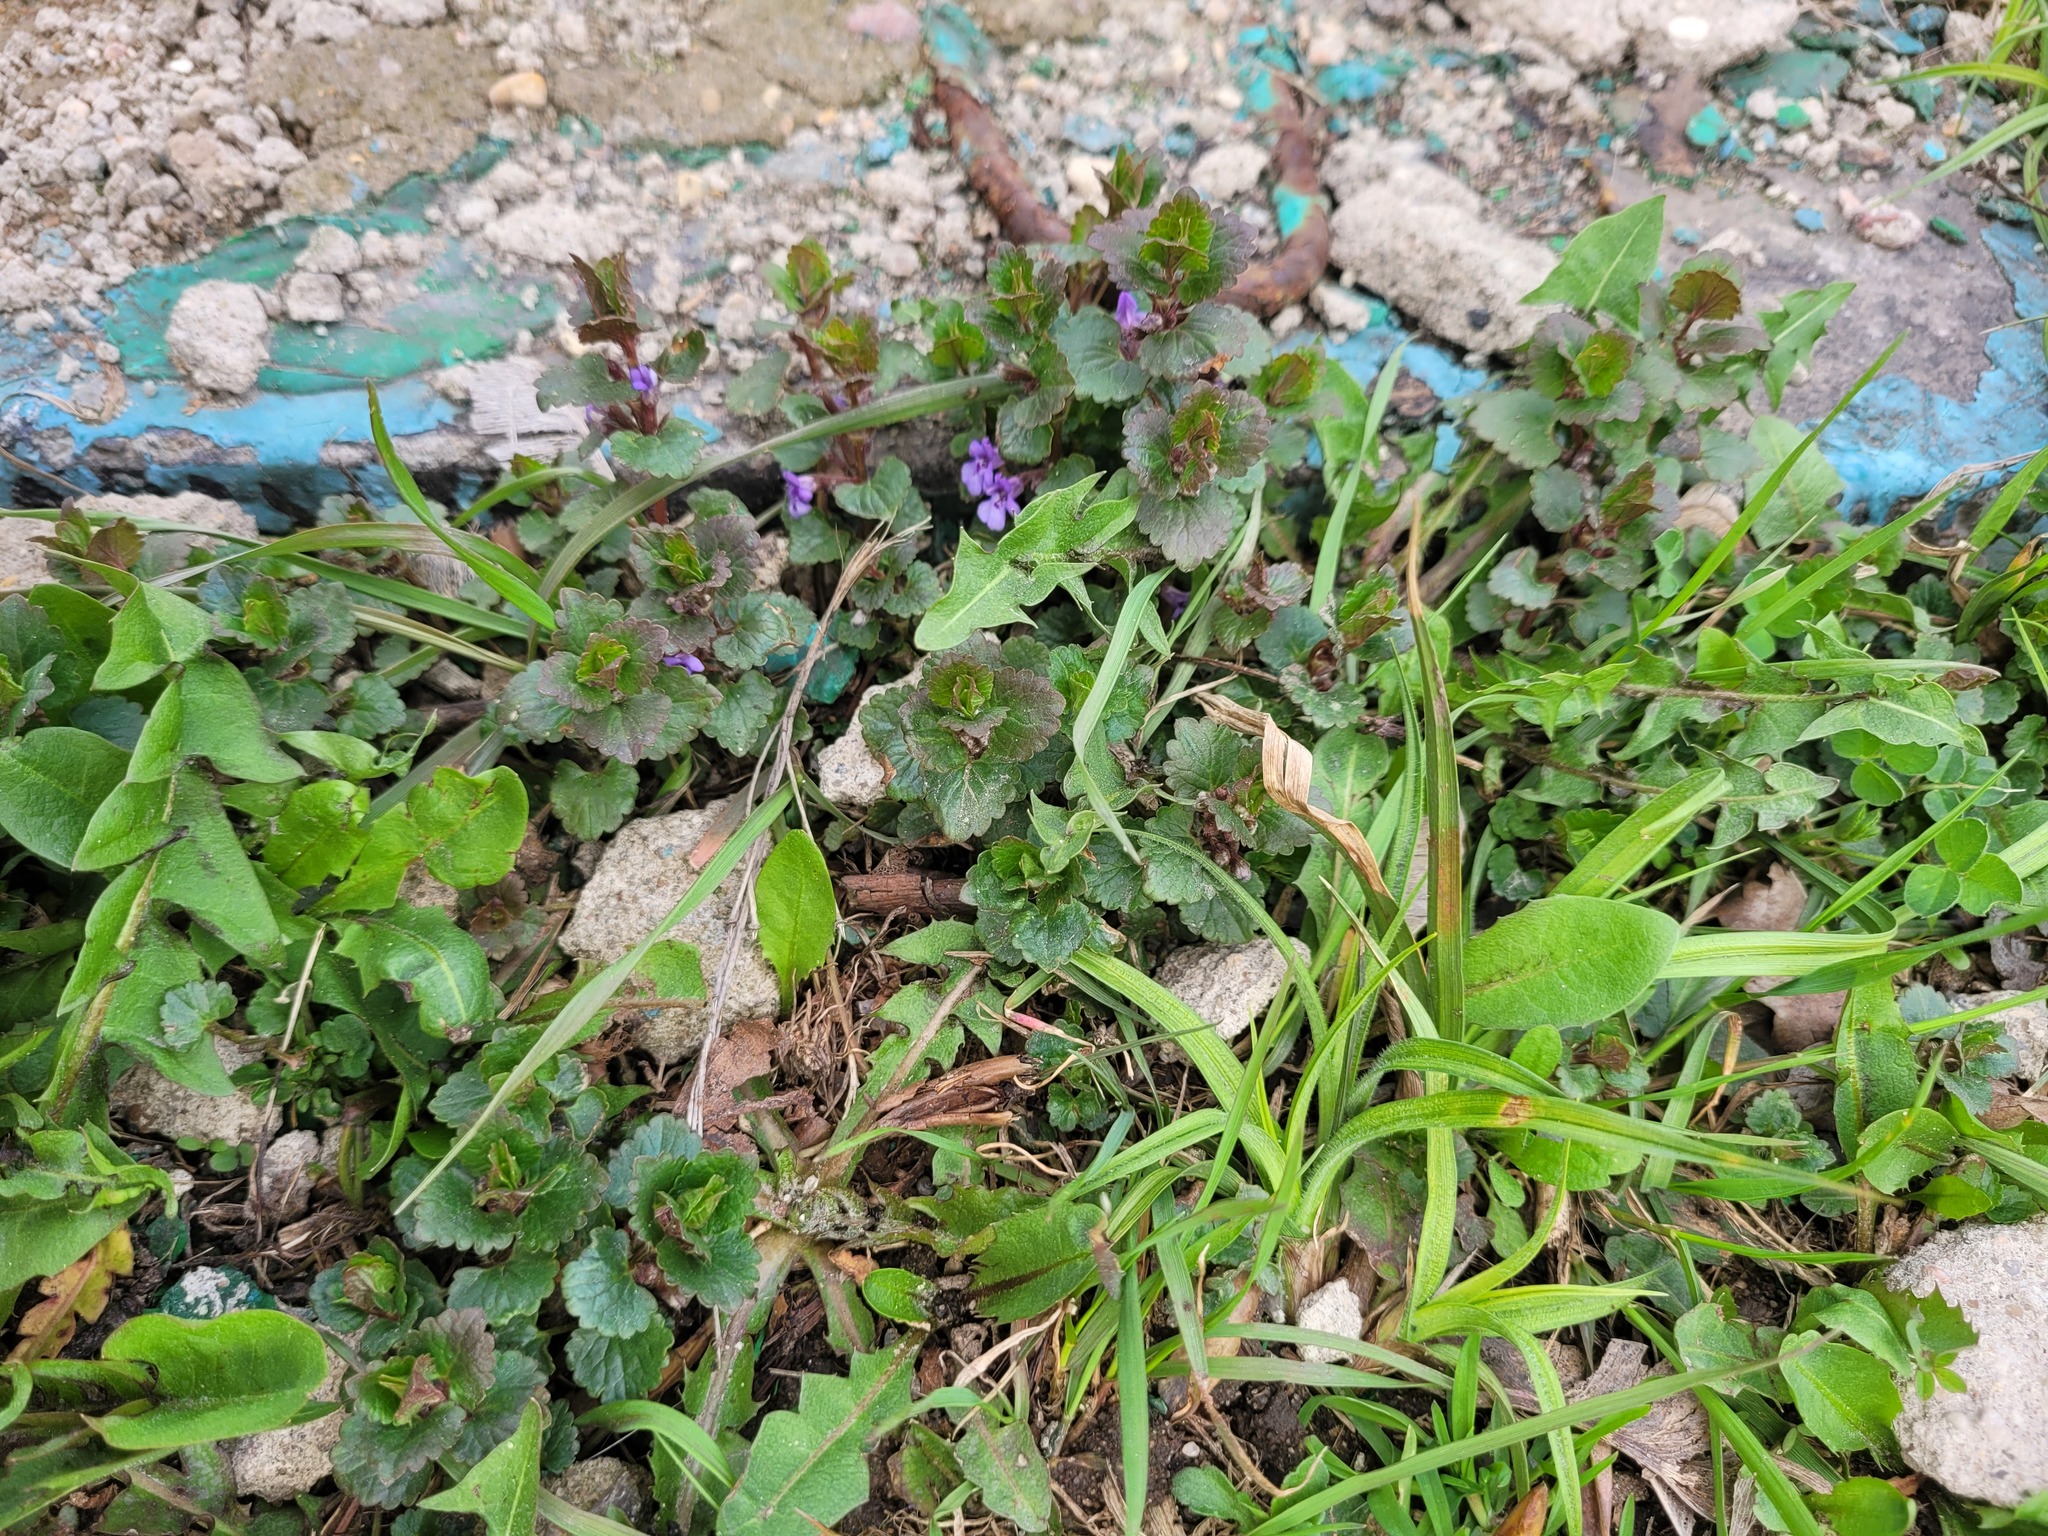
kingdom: Plantae
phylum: Tracheophyta
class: Magnoliopsida
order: Lamiales
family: Lamiaceae
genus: Glechoma
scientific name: Glechoma hederacea
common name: Ground ivy
